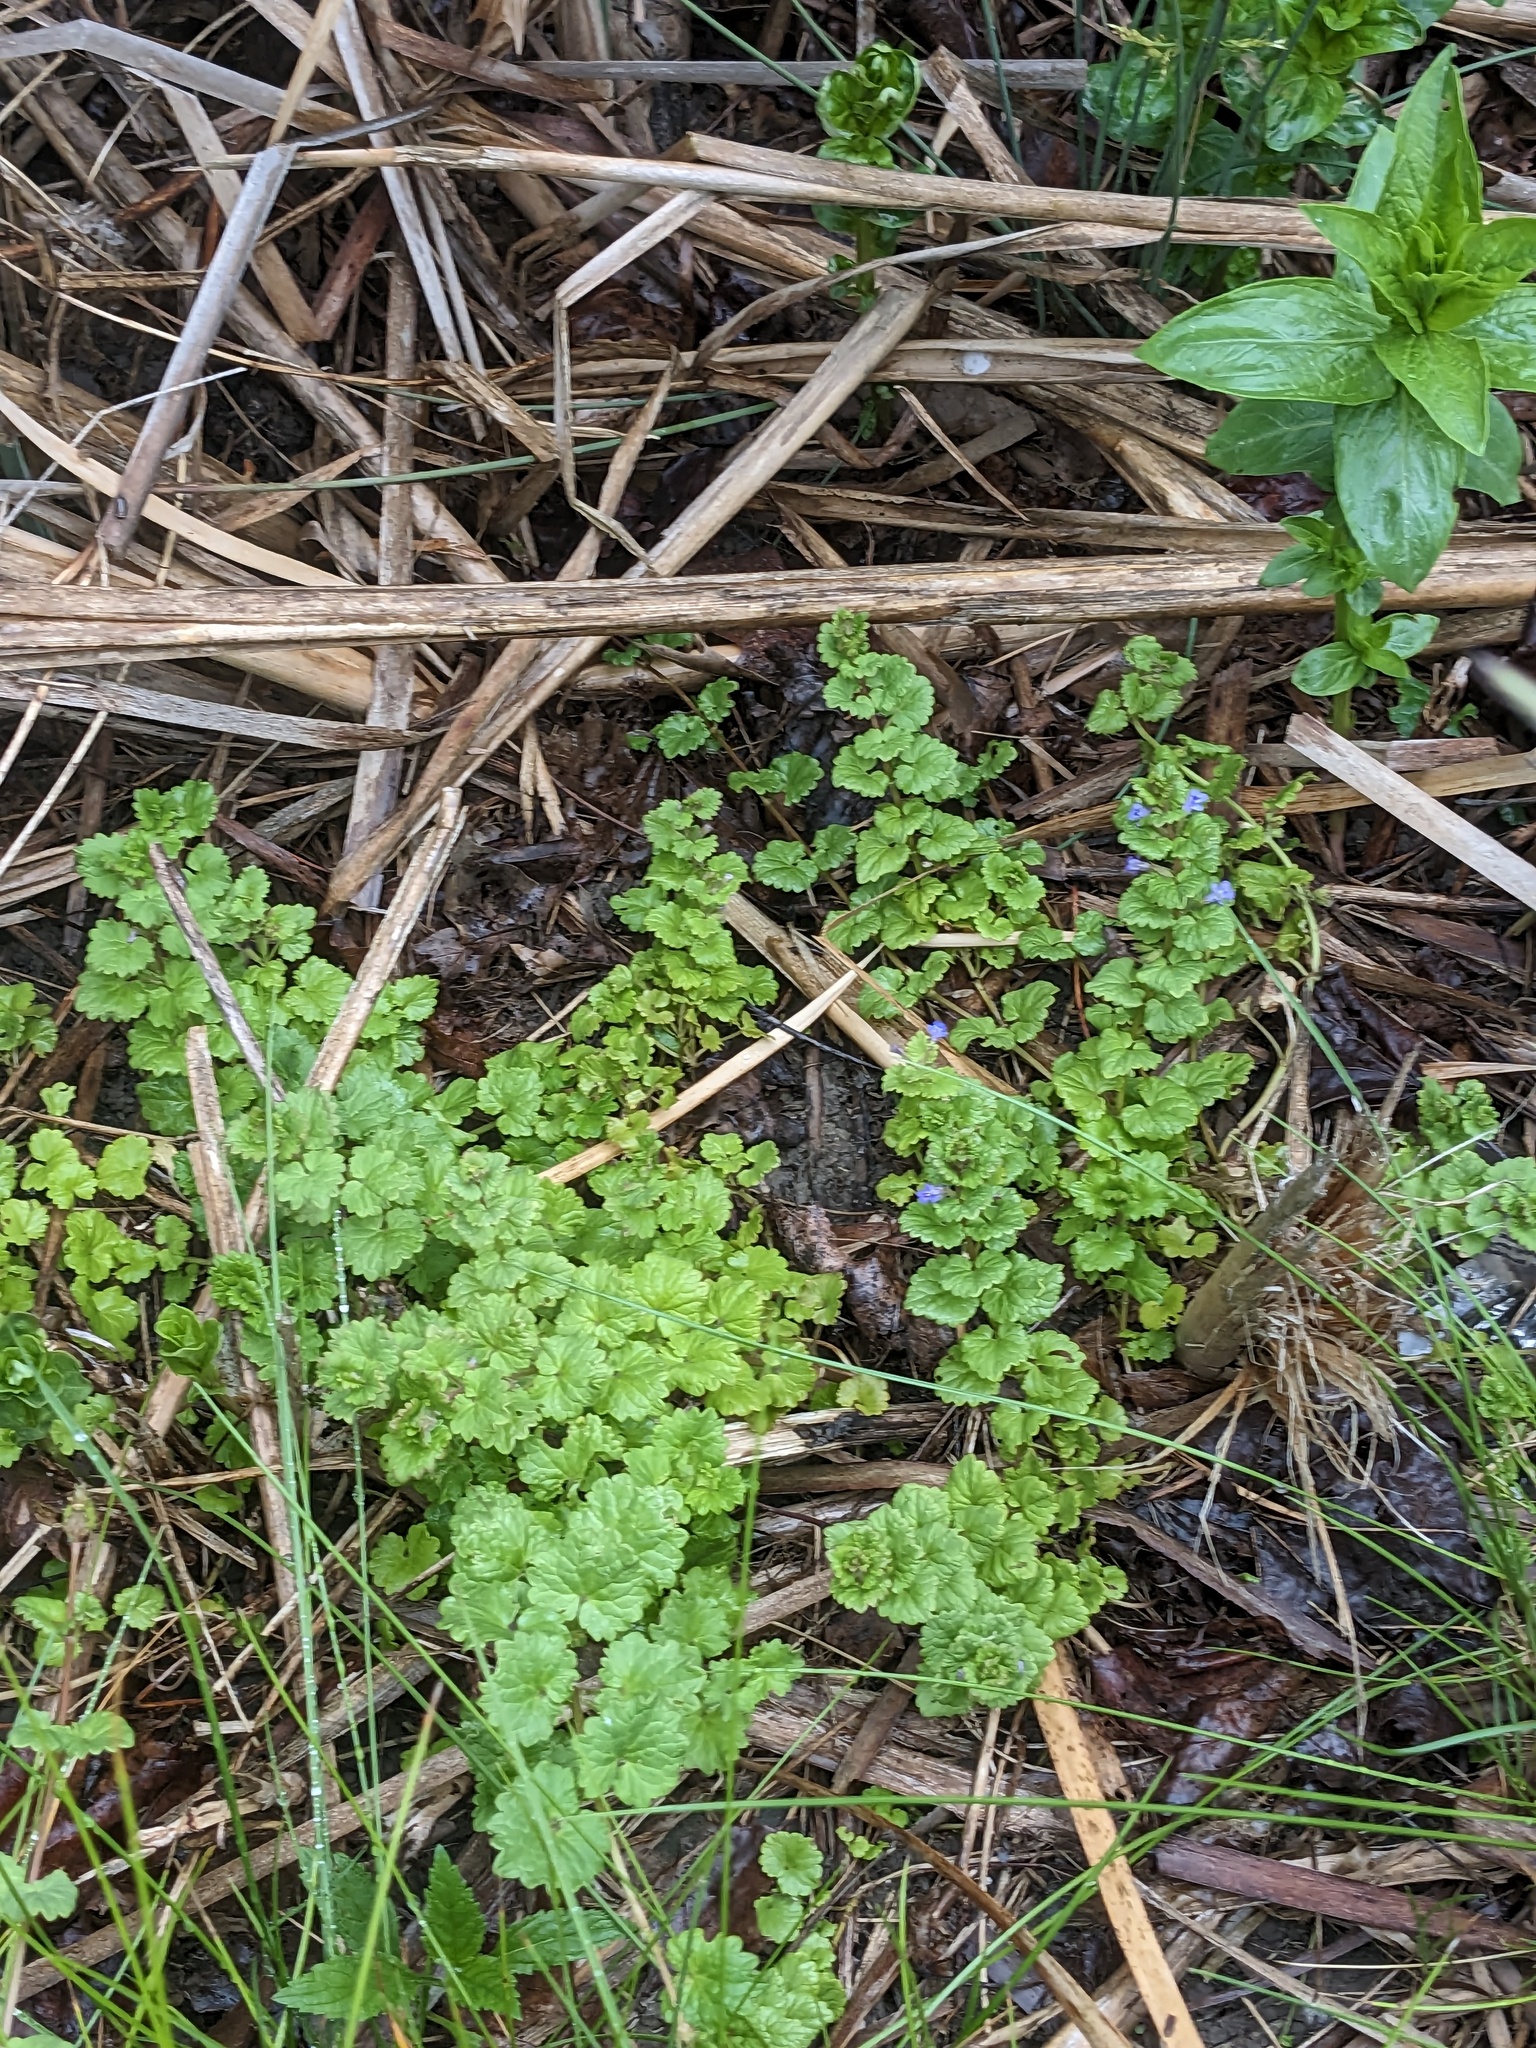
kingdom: Plantae
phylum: Tracheophyta
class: Magnoliopsida
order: Lamiales
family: Lamiaceae
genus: Glechoma
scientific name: Glechoma hederacea
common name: Ground ivy
